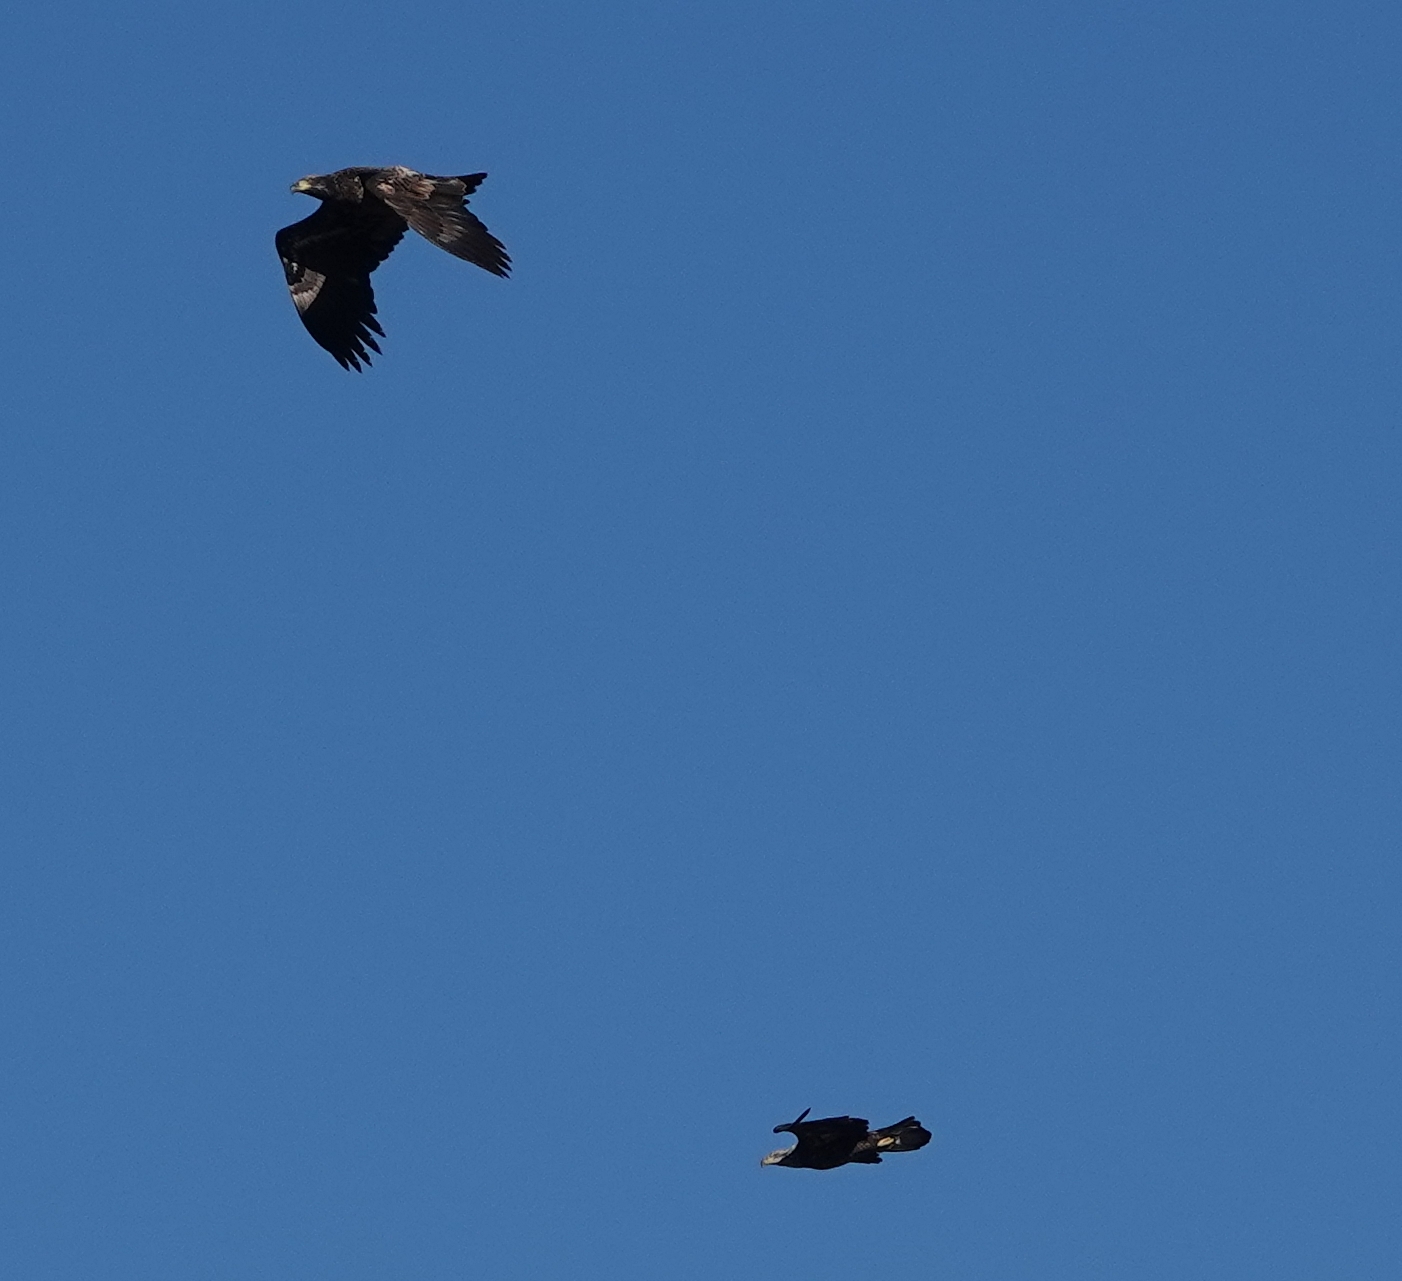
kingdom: Animalia
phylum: Chordata
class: Aves
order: Accipitriformes
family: Accipitridae
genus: Aquila
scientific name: Aquila chrysaetos
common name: Golden eagle
